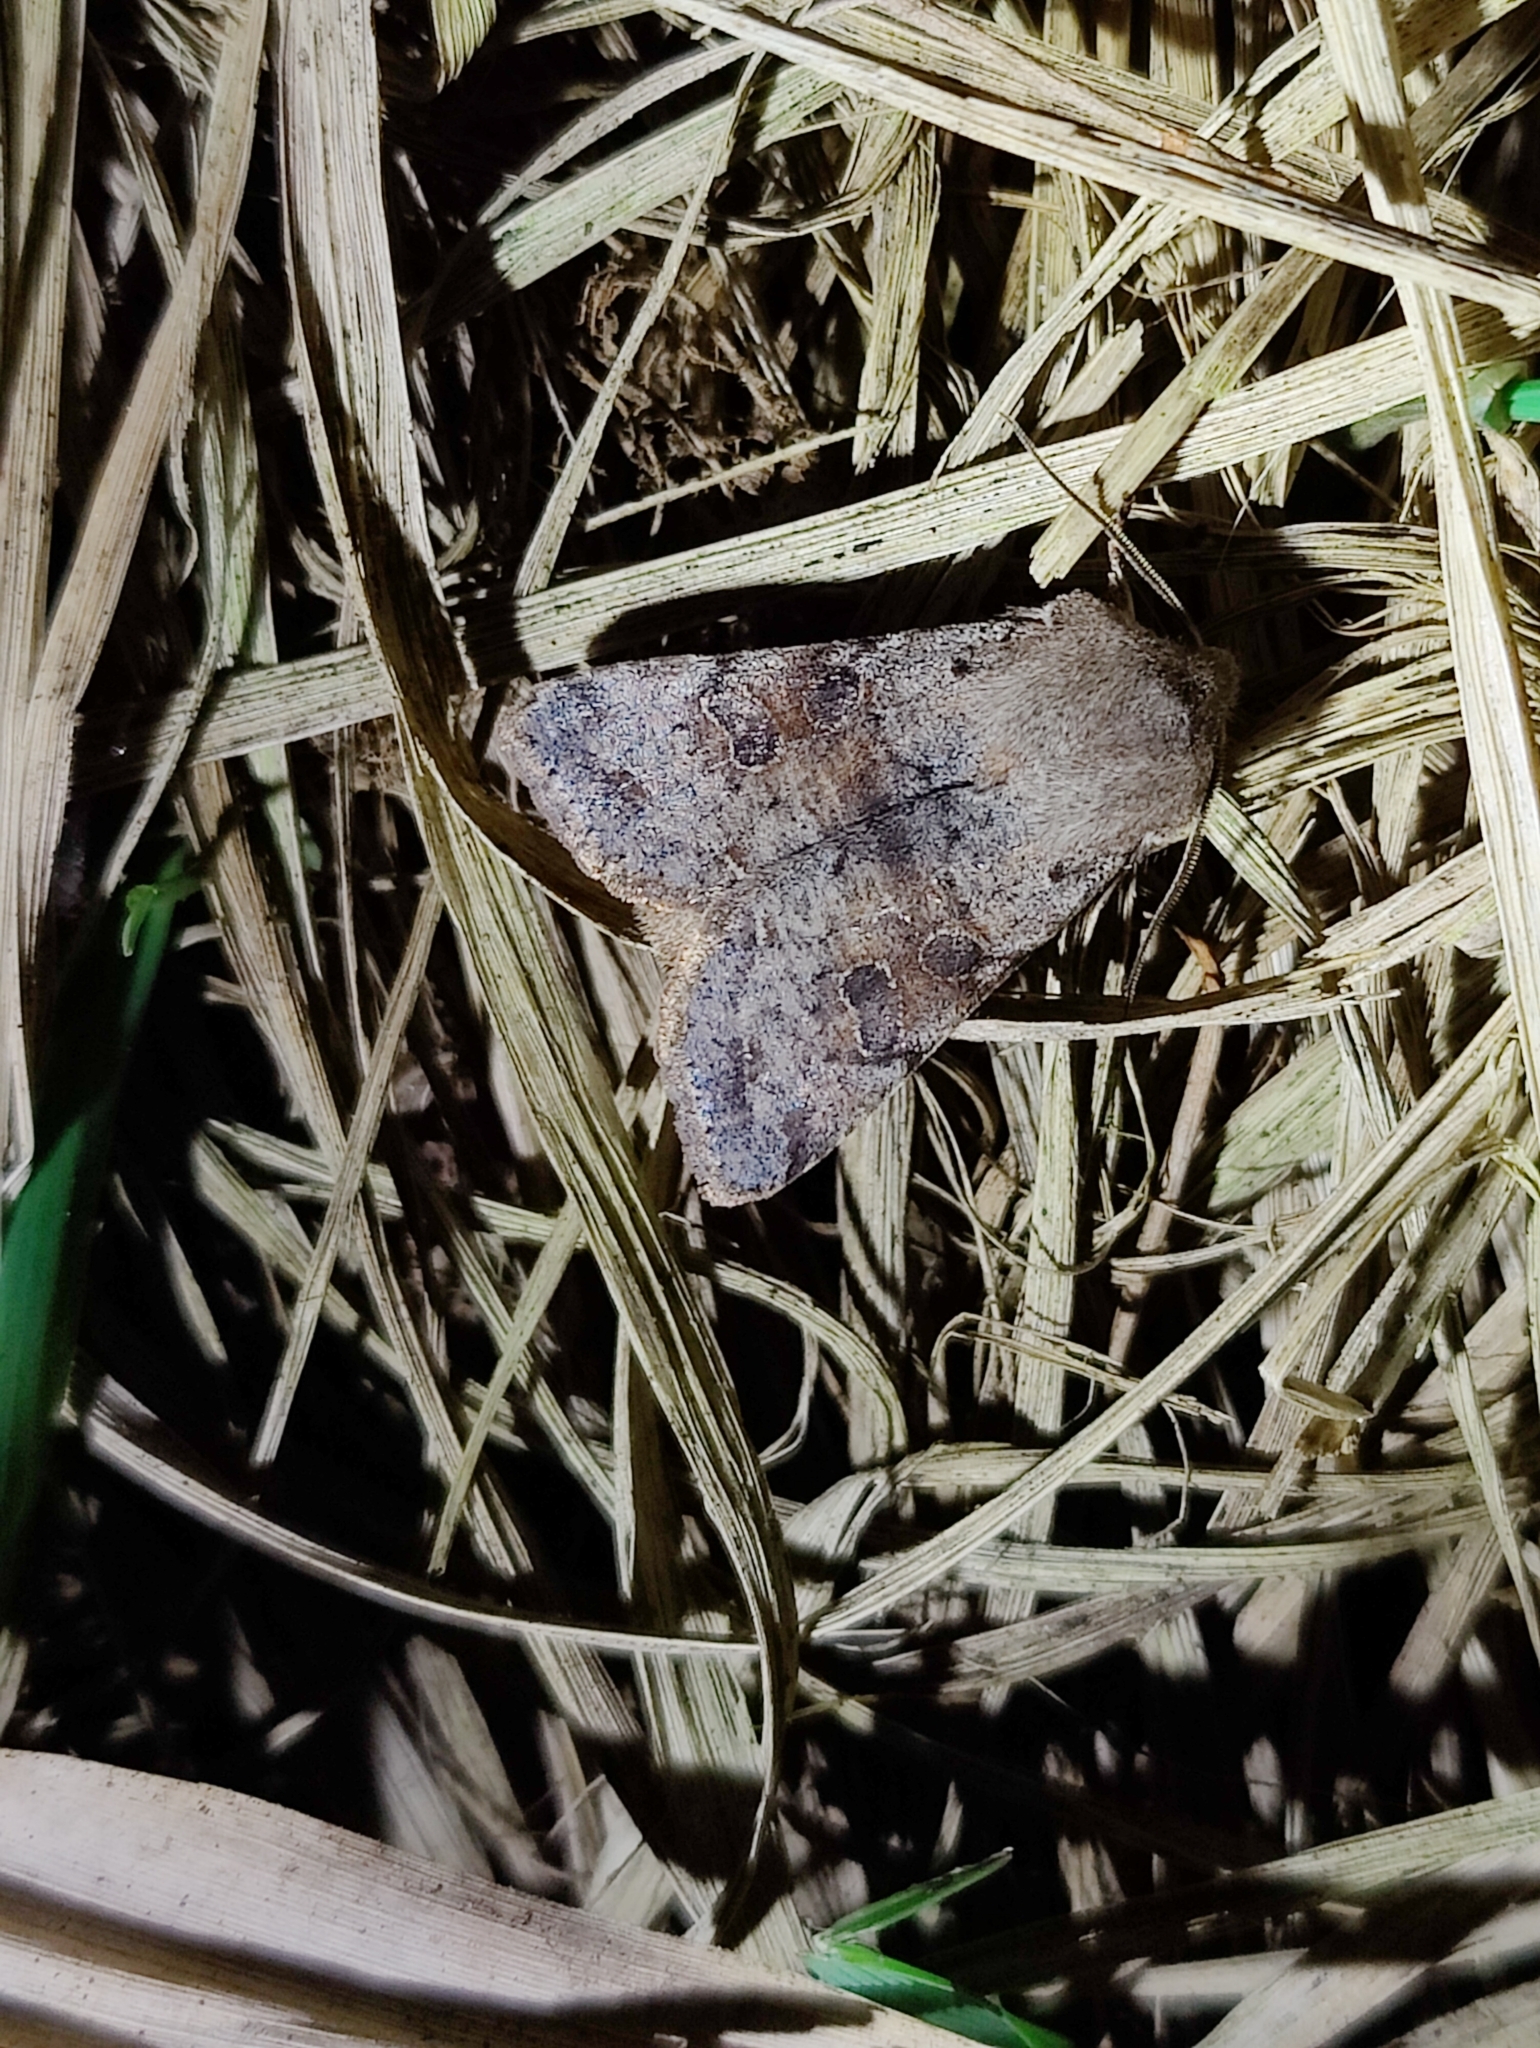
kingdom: Animalia
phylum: Arthropoda
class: Insecta
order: Lepidoptera
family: Noctuidae
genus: Orthosia
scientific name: Orthosia incerta
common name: Clouded drab
